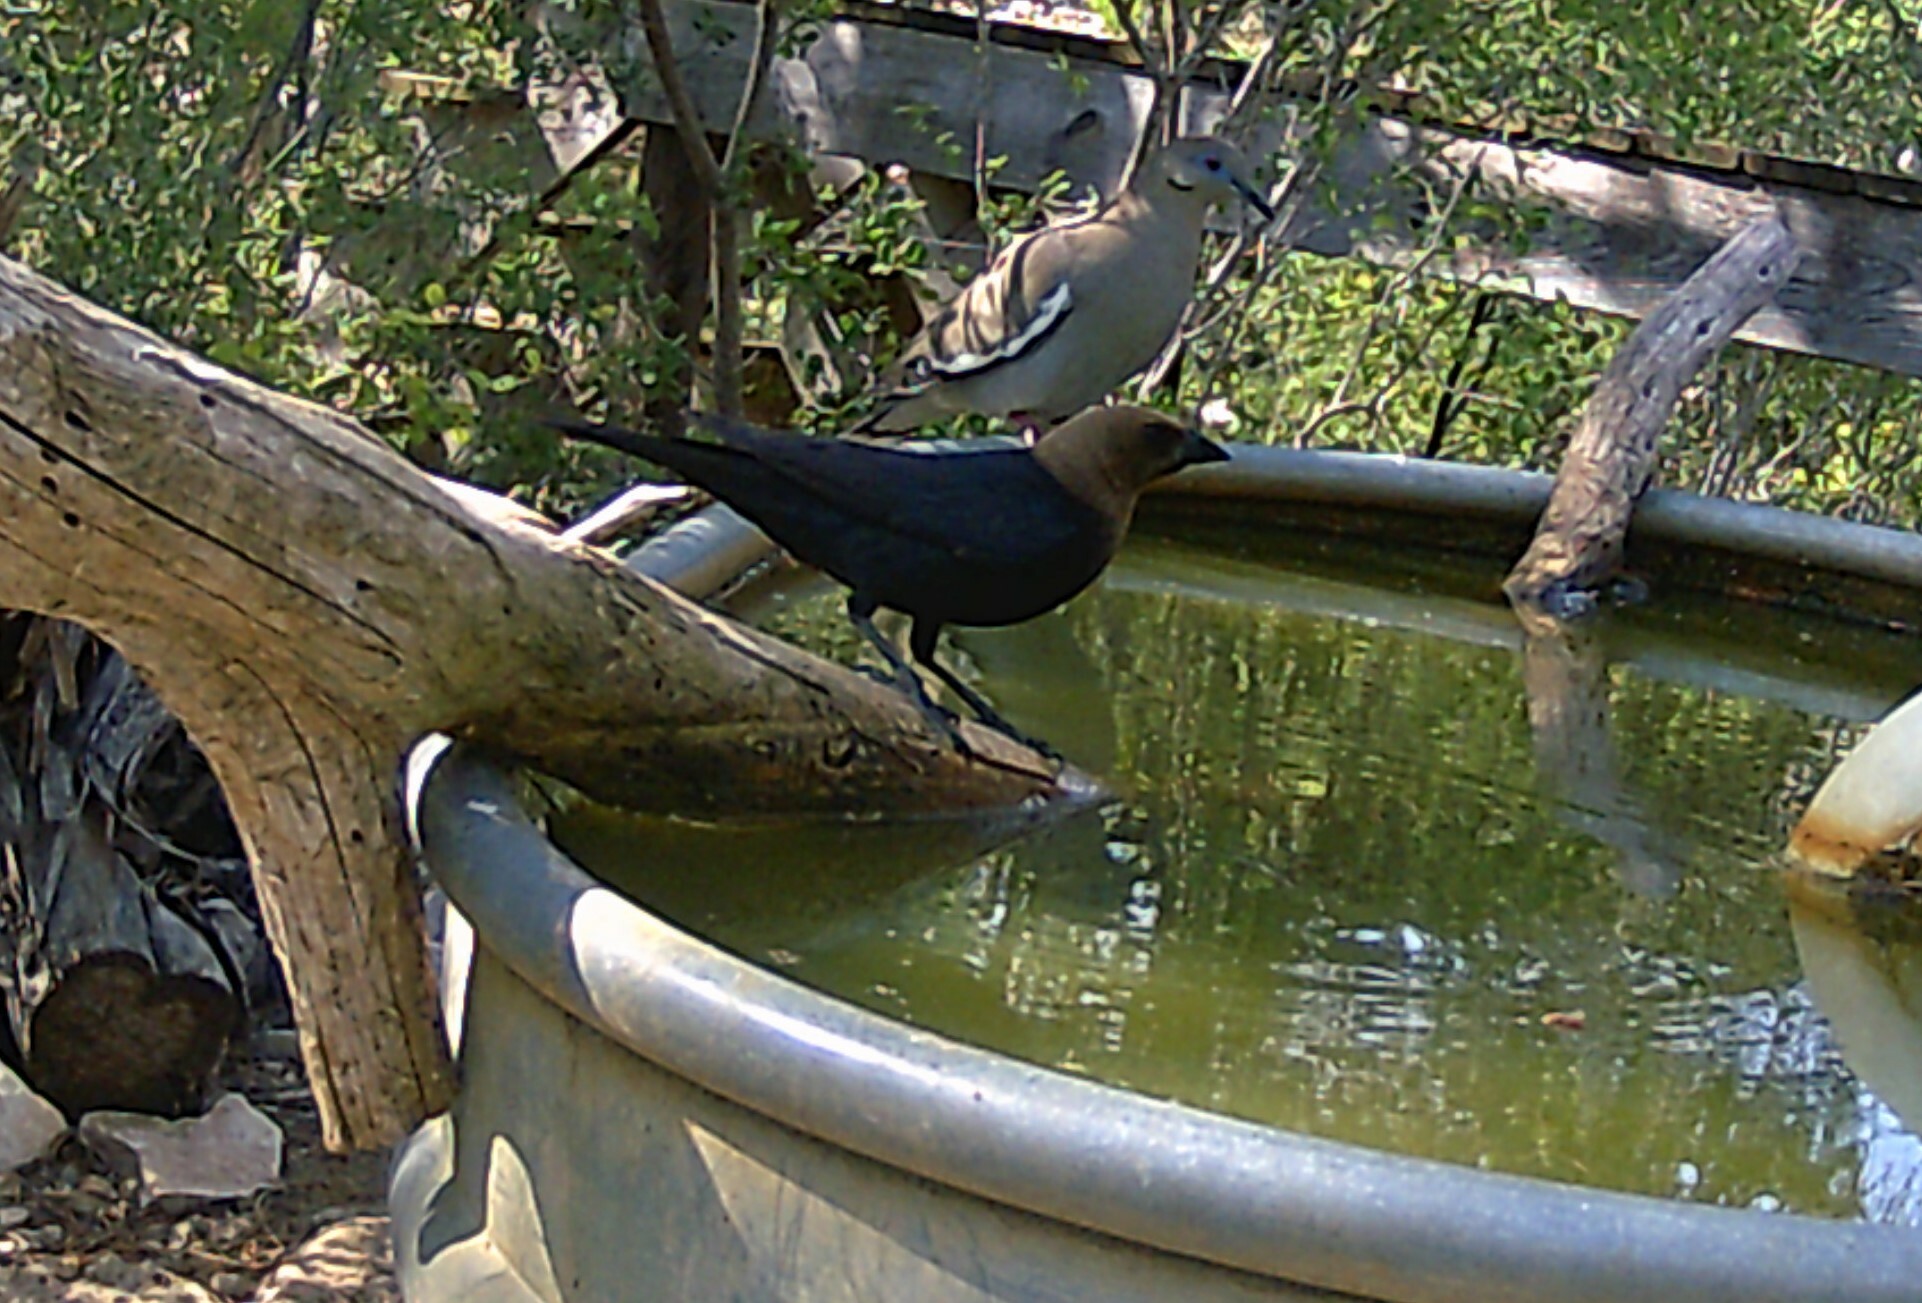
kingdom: Animalia
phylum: Chordata
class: Aves
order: Passeriformes
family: Icteridae
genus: Molothrus
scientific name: Molothrus ater
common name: Brown-headed cowbird
